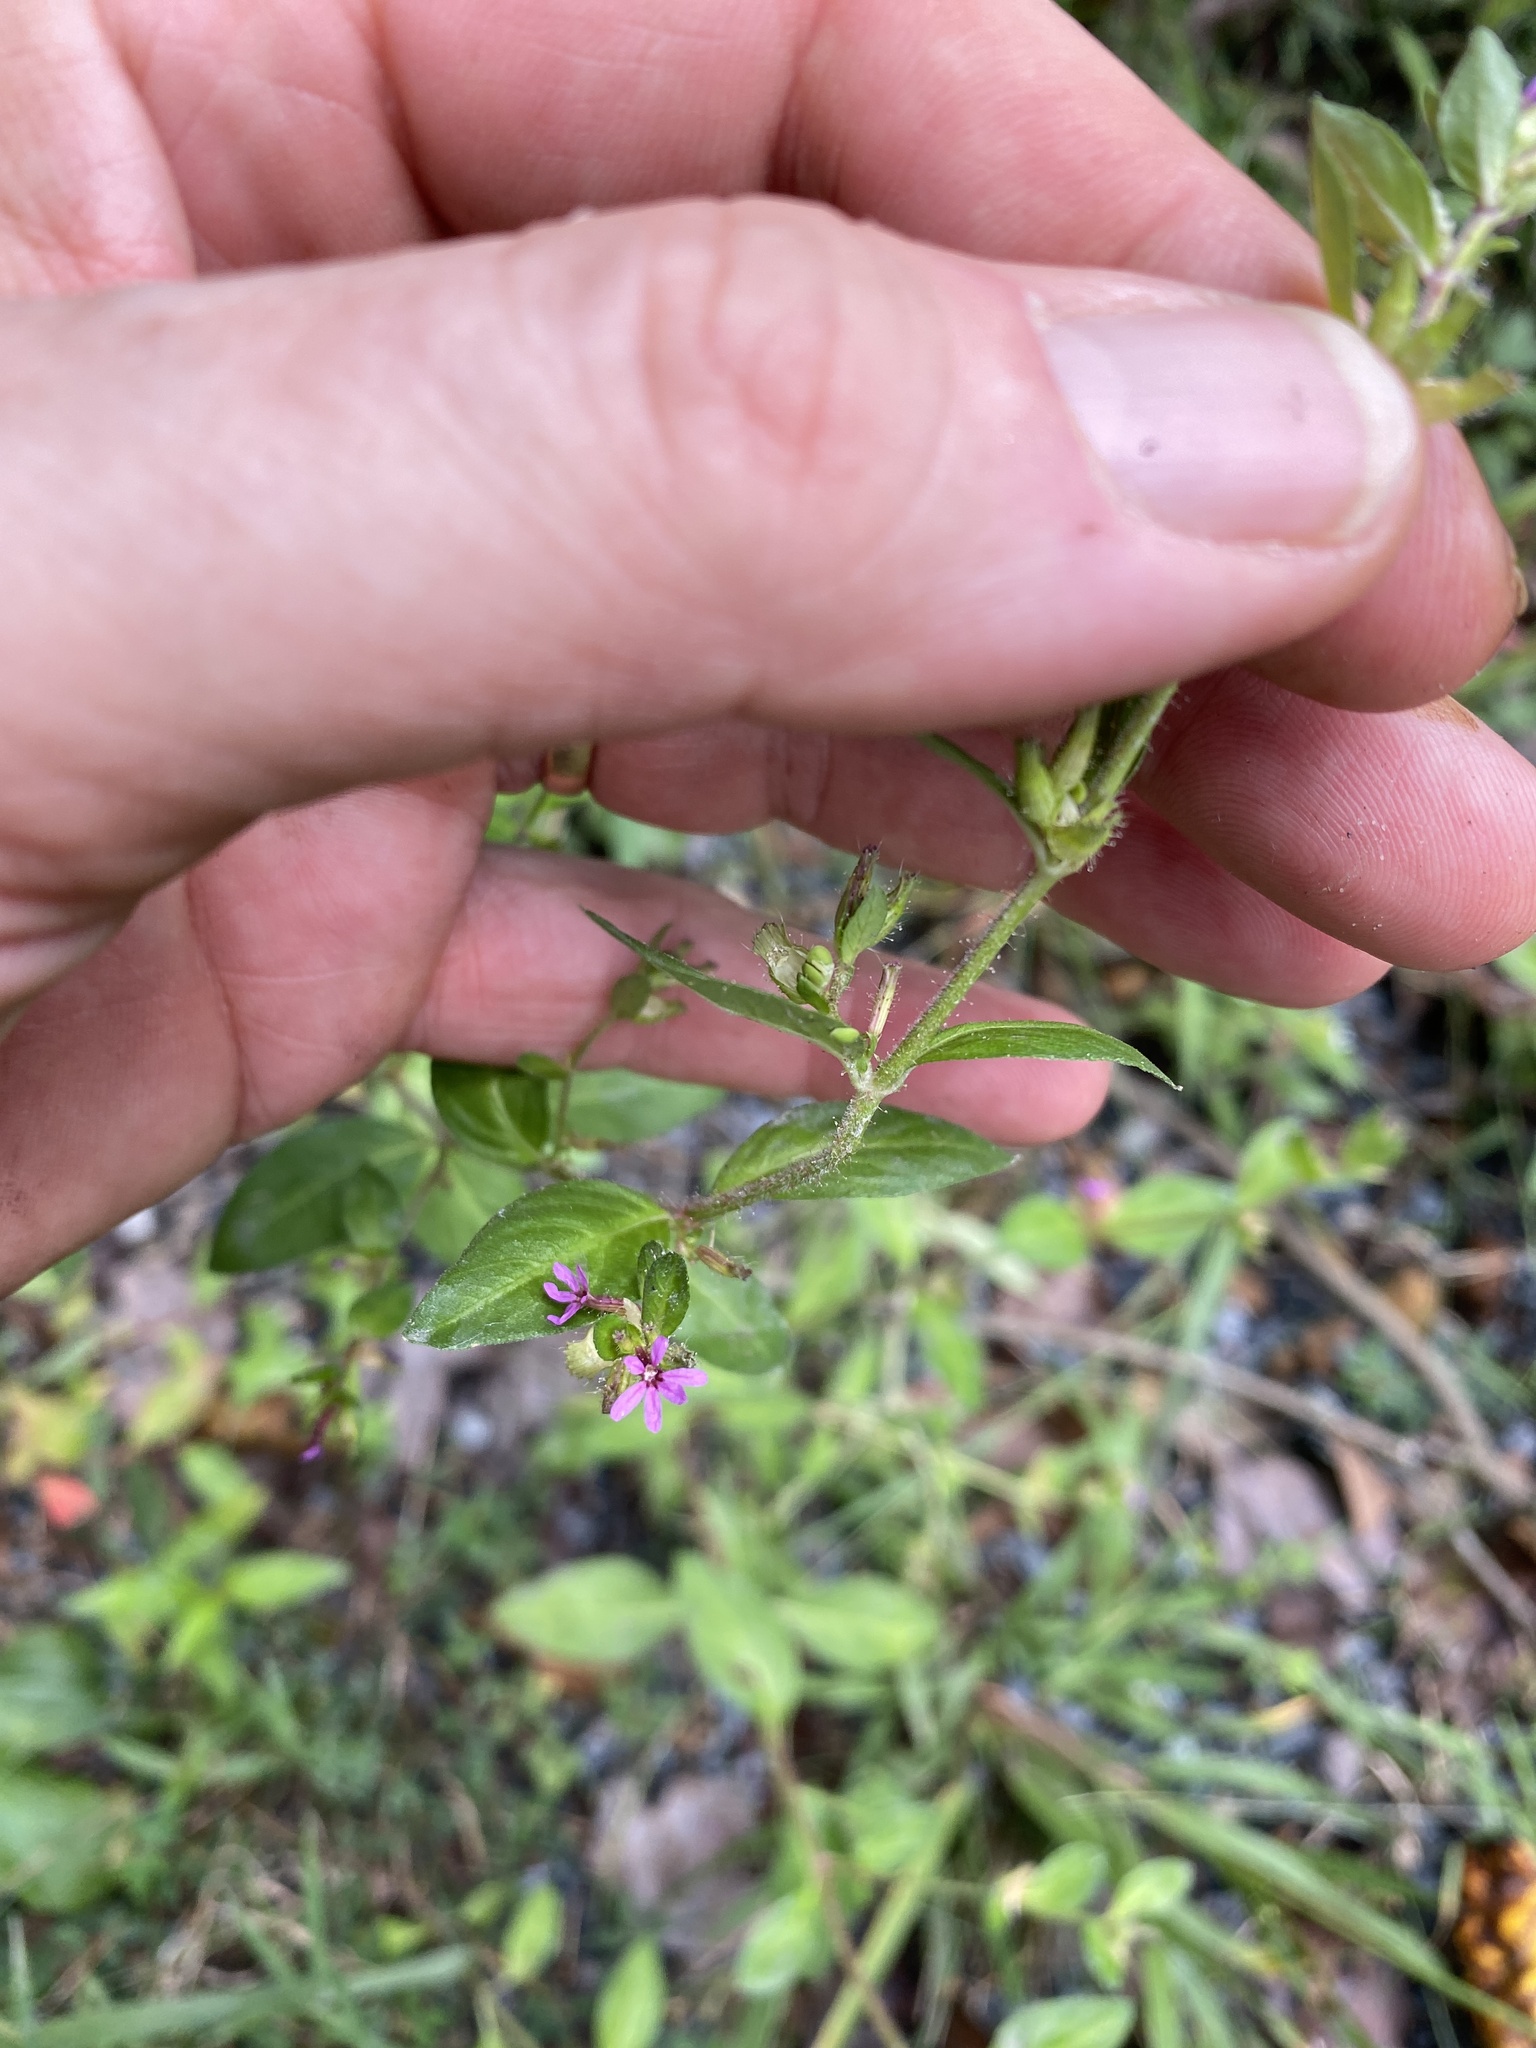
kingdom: Plantae
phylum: Tracheophyta
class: Magnoliopsida
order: Myrtales
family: Lythraceae
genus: Cuphea
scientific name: Cuphea carthagenensis
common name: Colombian waxweed
